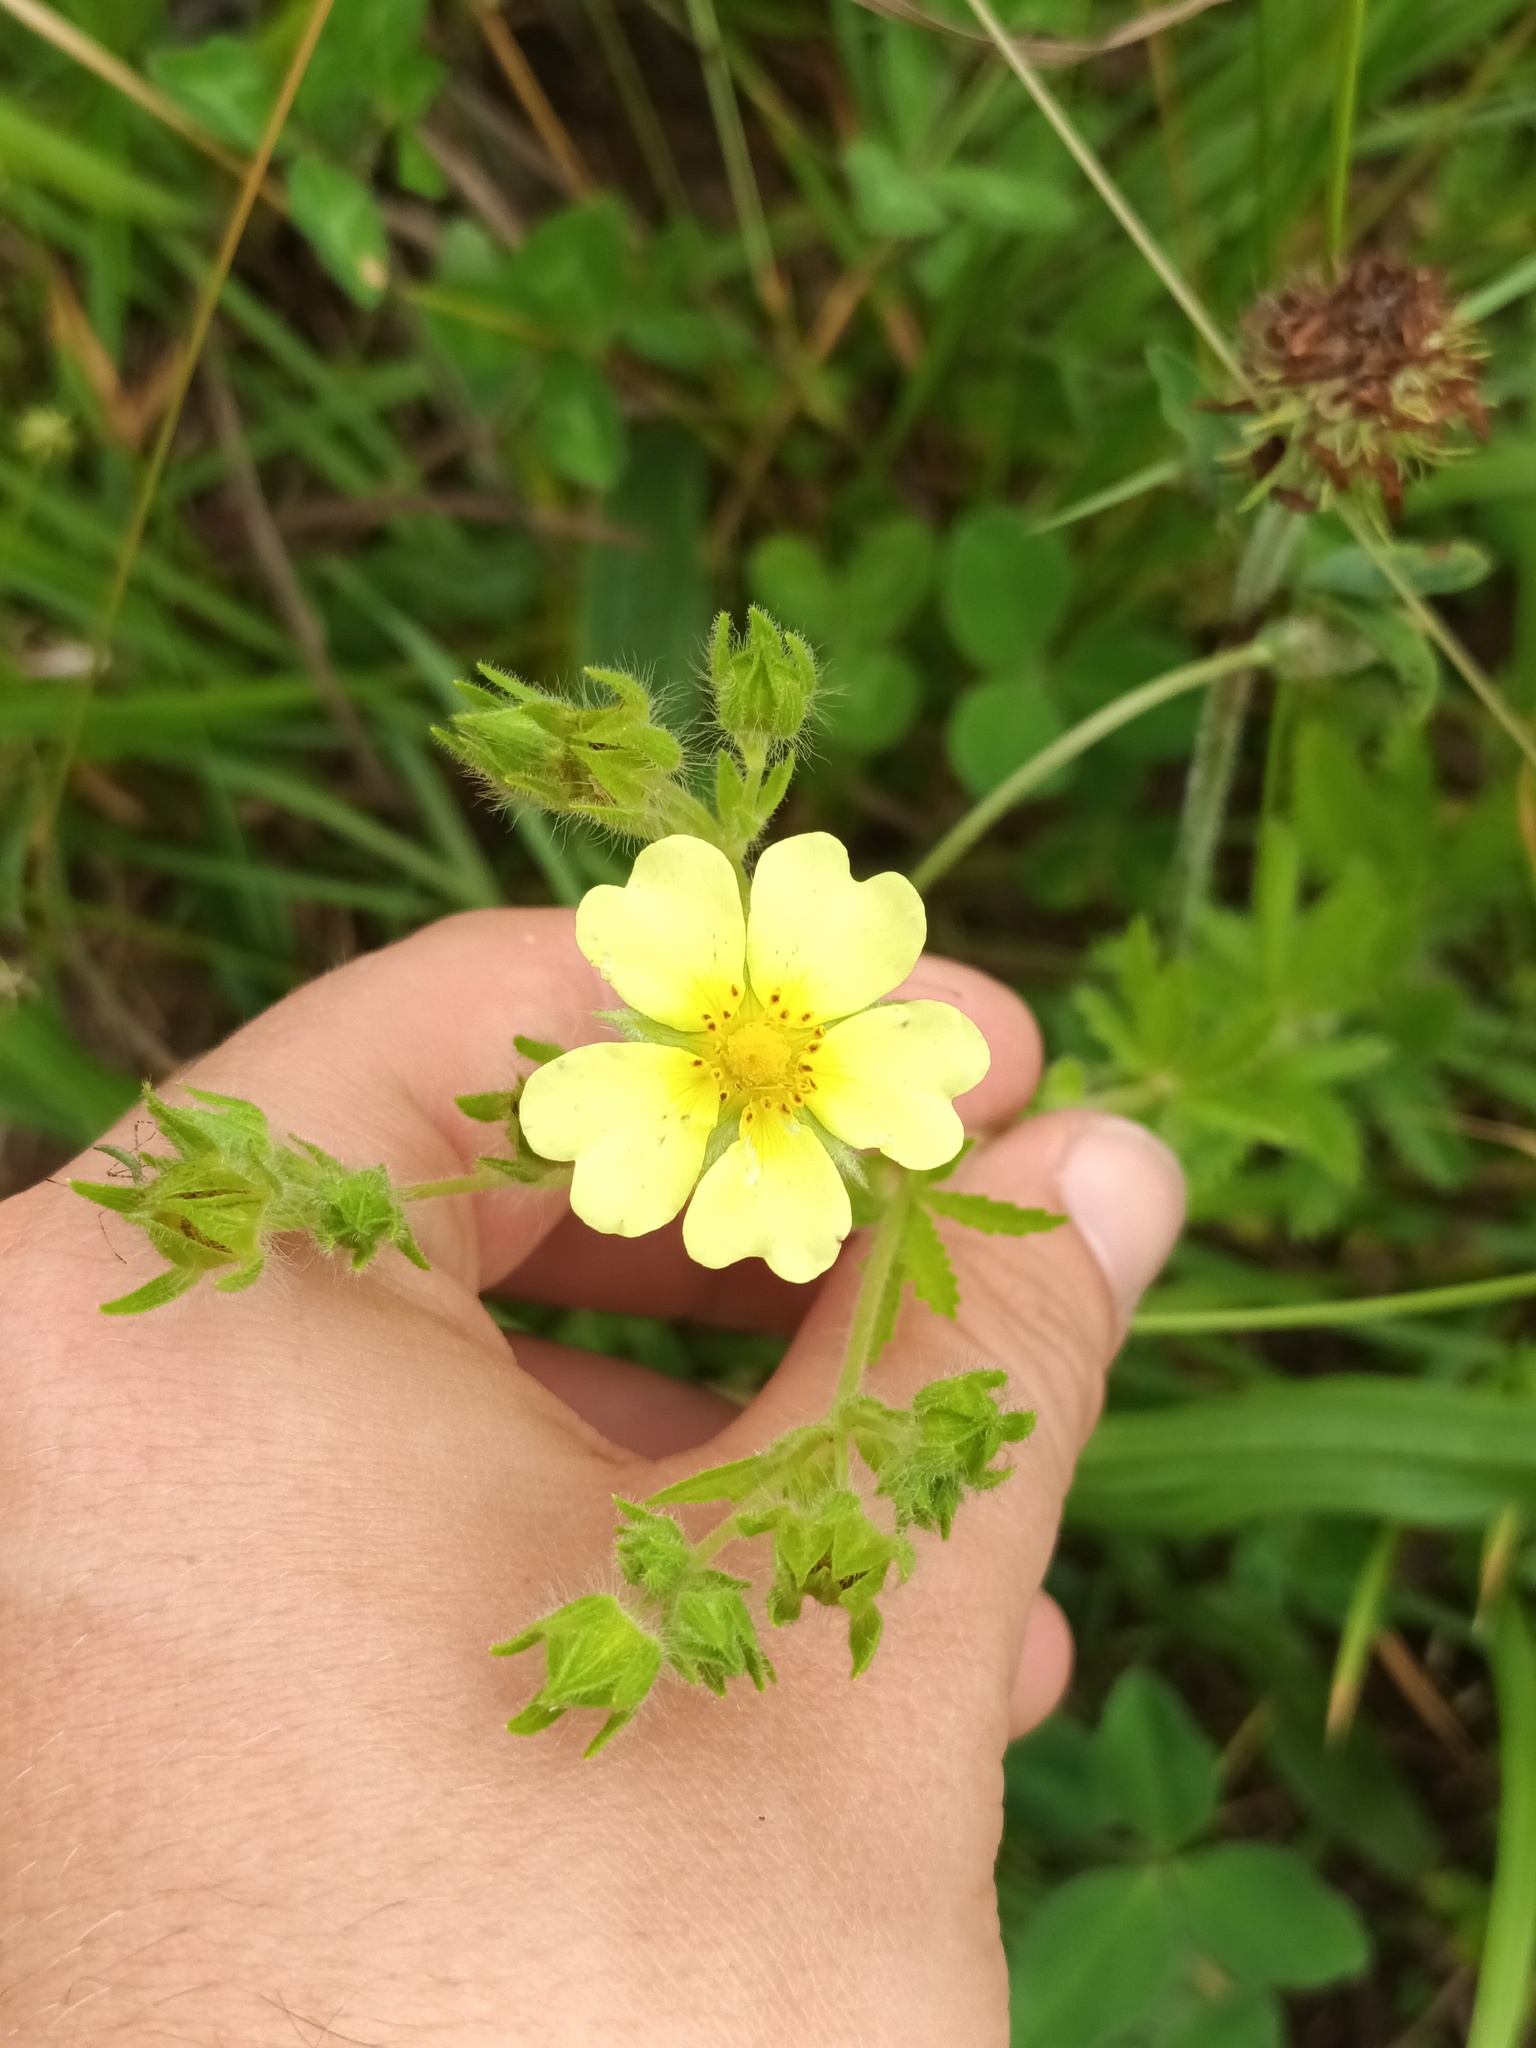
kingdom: Plantae
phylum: Tracheophyta
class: Magnoliopsida
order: Rosales
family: Rosaceae
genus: Potentilla
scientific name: Potentilla recta
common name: Sulphur cinquefoil
